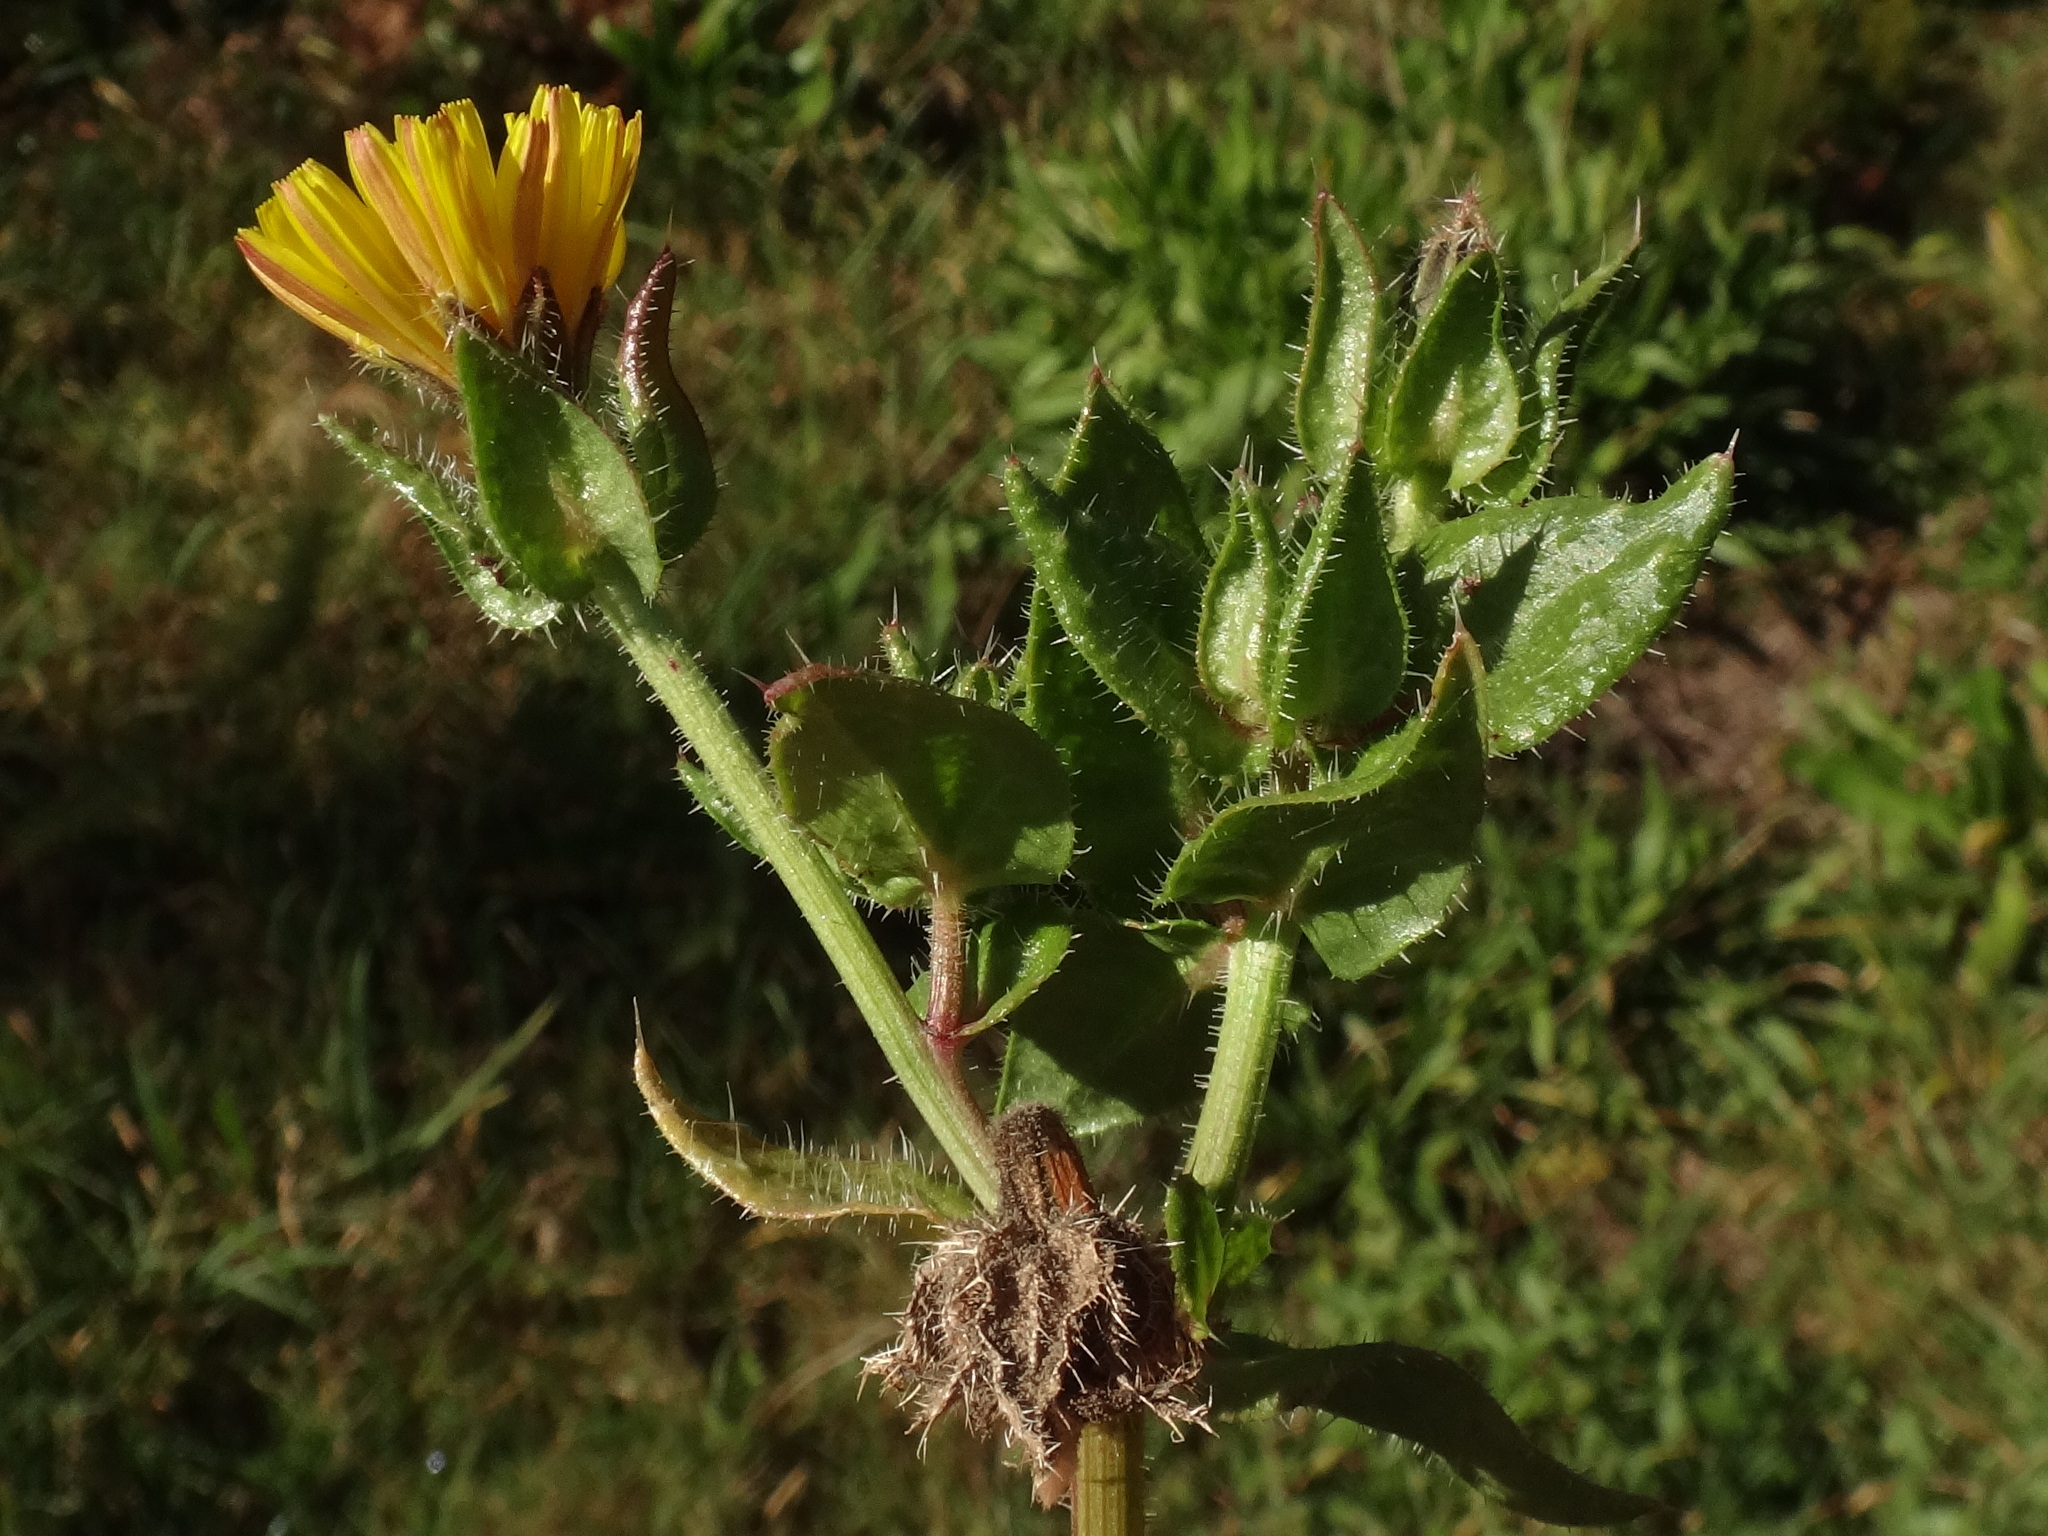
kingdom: Plantae
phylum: Tracheophyta
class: Magnoliopsida
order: Asterales
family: Asteraceae
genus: Helminthotheca
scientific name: Helminthotheca echioides
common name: Ox-tongue
